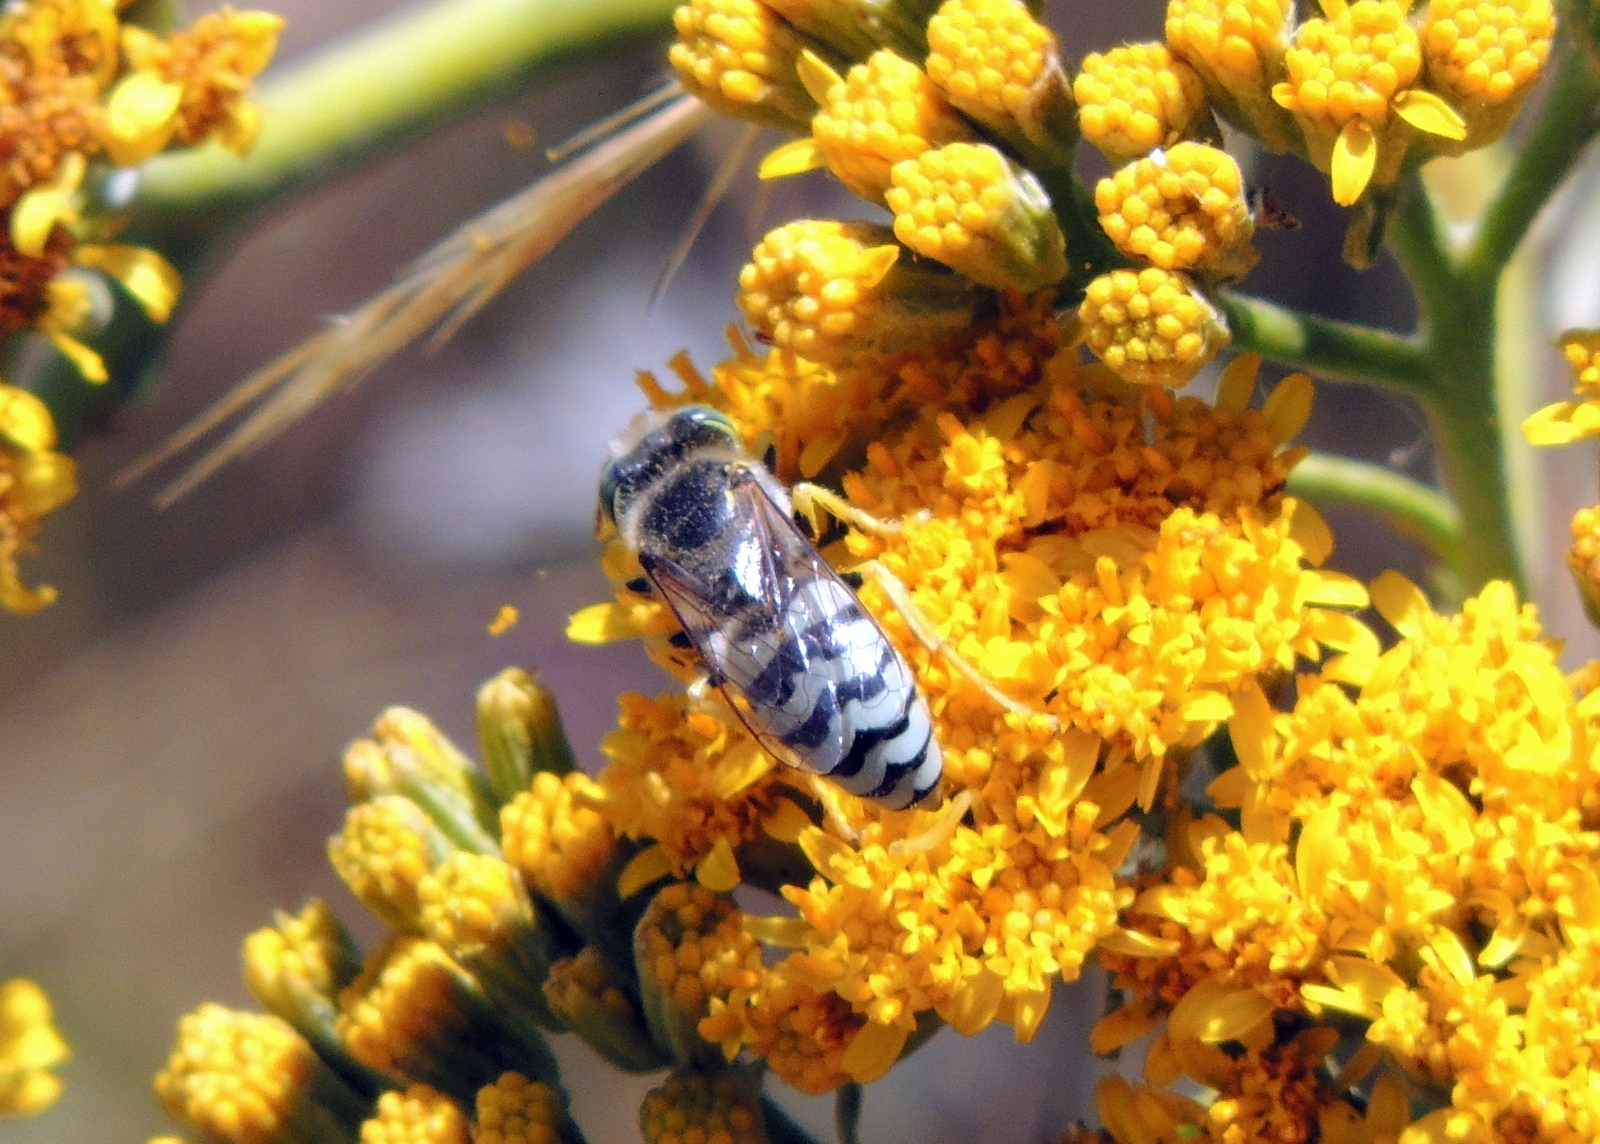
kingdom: Animalia
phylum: Arthropoda
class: Insecta
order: Hymenoptera
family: Crabronidae
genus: Bembix
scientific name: Bembix americana
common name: American sand wasp
